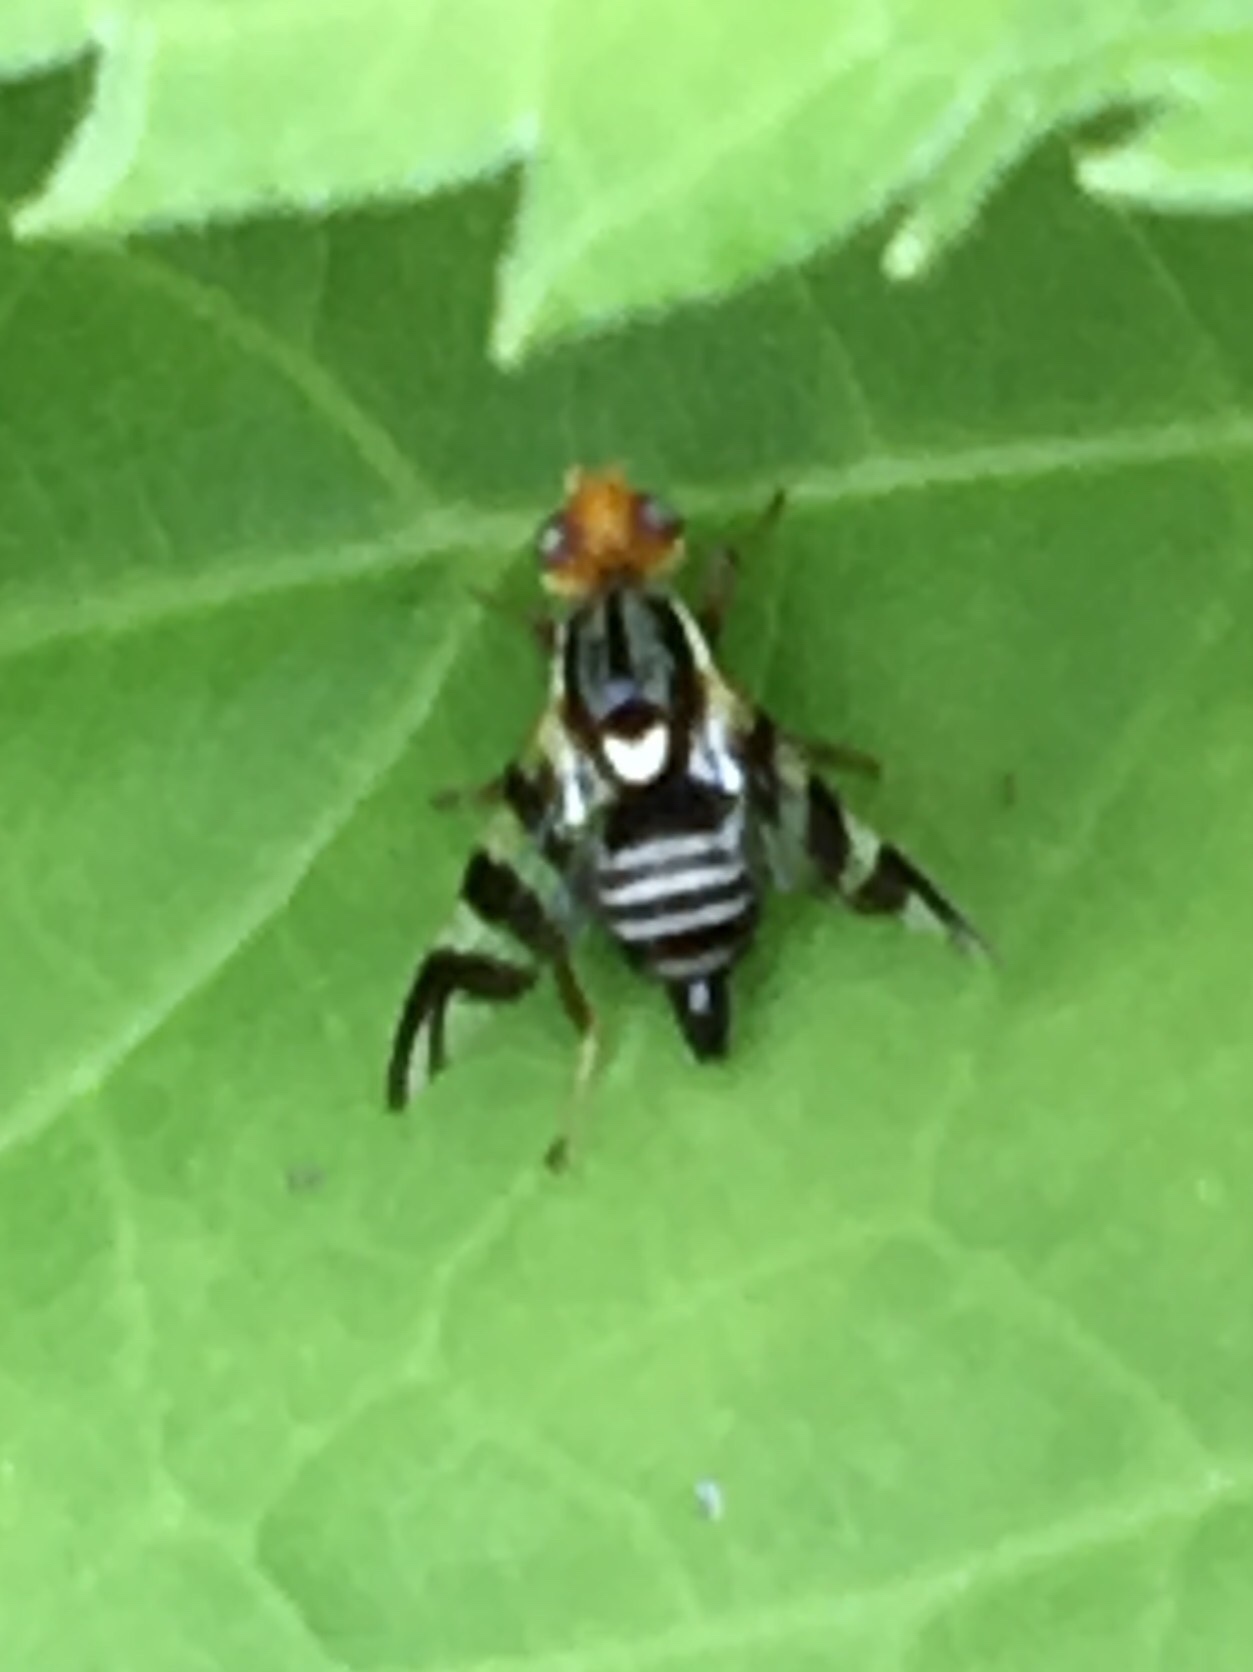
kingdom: Animalia
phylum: Arthropoda
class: Insecta
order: Diptera
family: Tephritidae
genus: Rhagoletis
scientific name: Rhagoletis striatella
